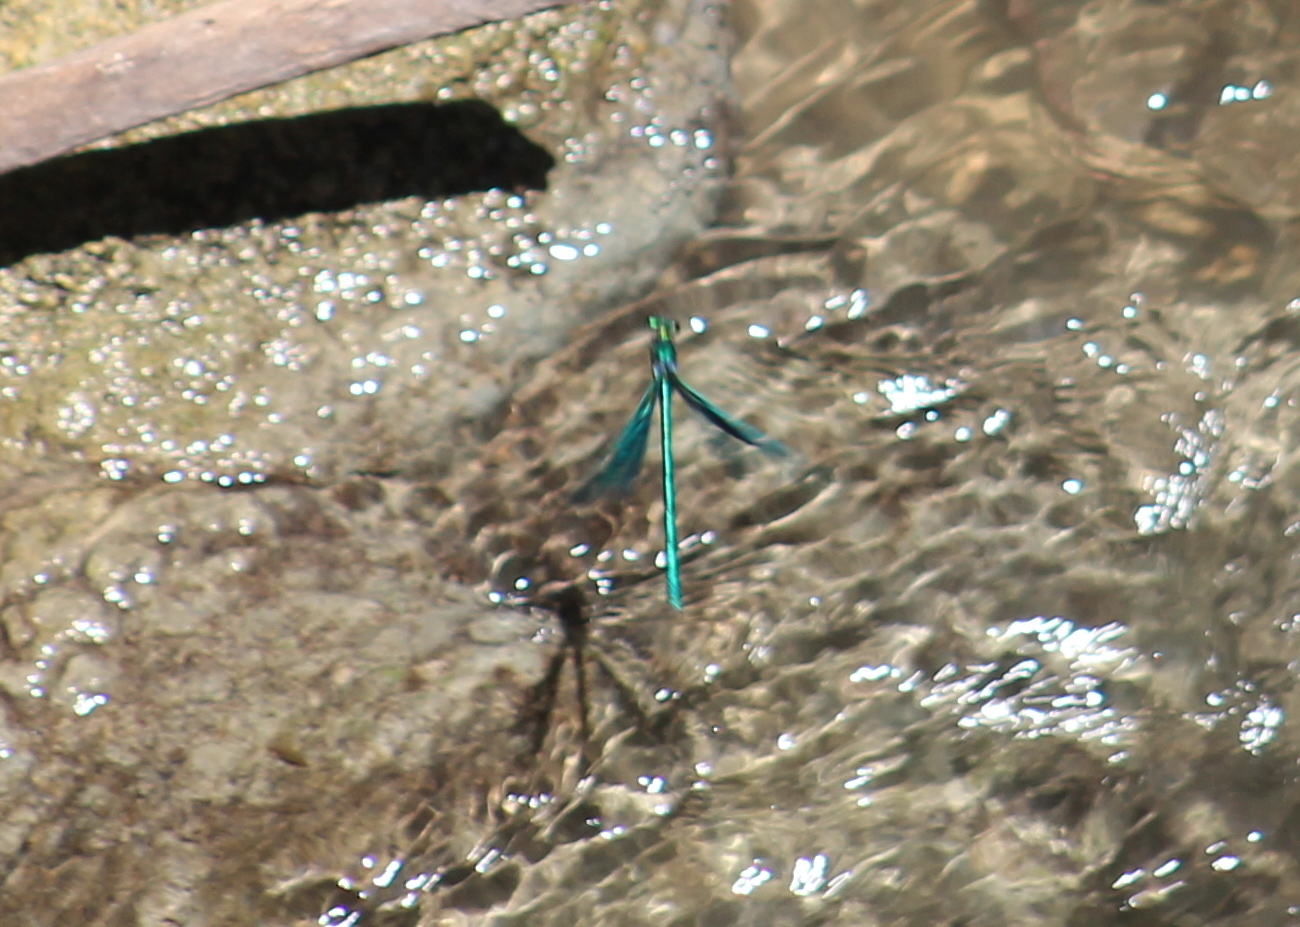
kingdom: Animalia
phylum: Arthropoda
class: Insecta
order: Odonata
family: Calopterygidae
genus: Calopteryx
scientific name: Calopteryx virgo
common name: Beautiful demoiselle
